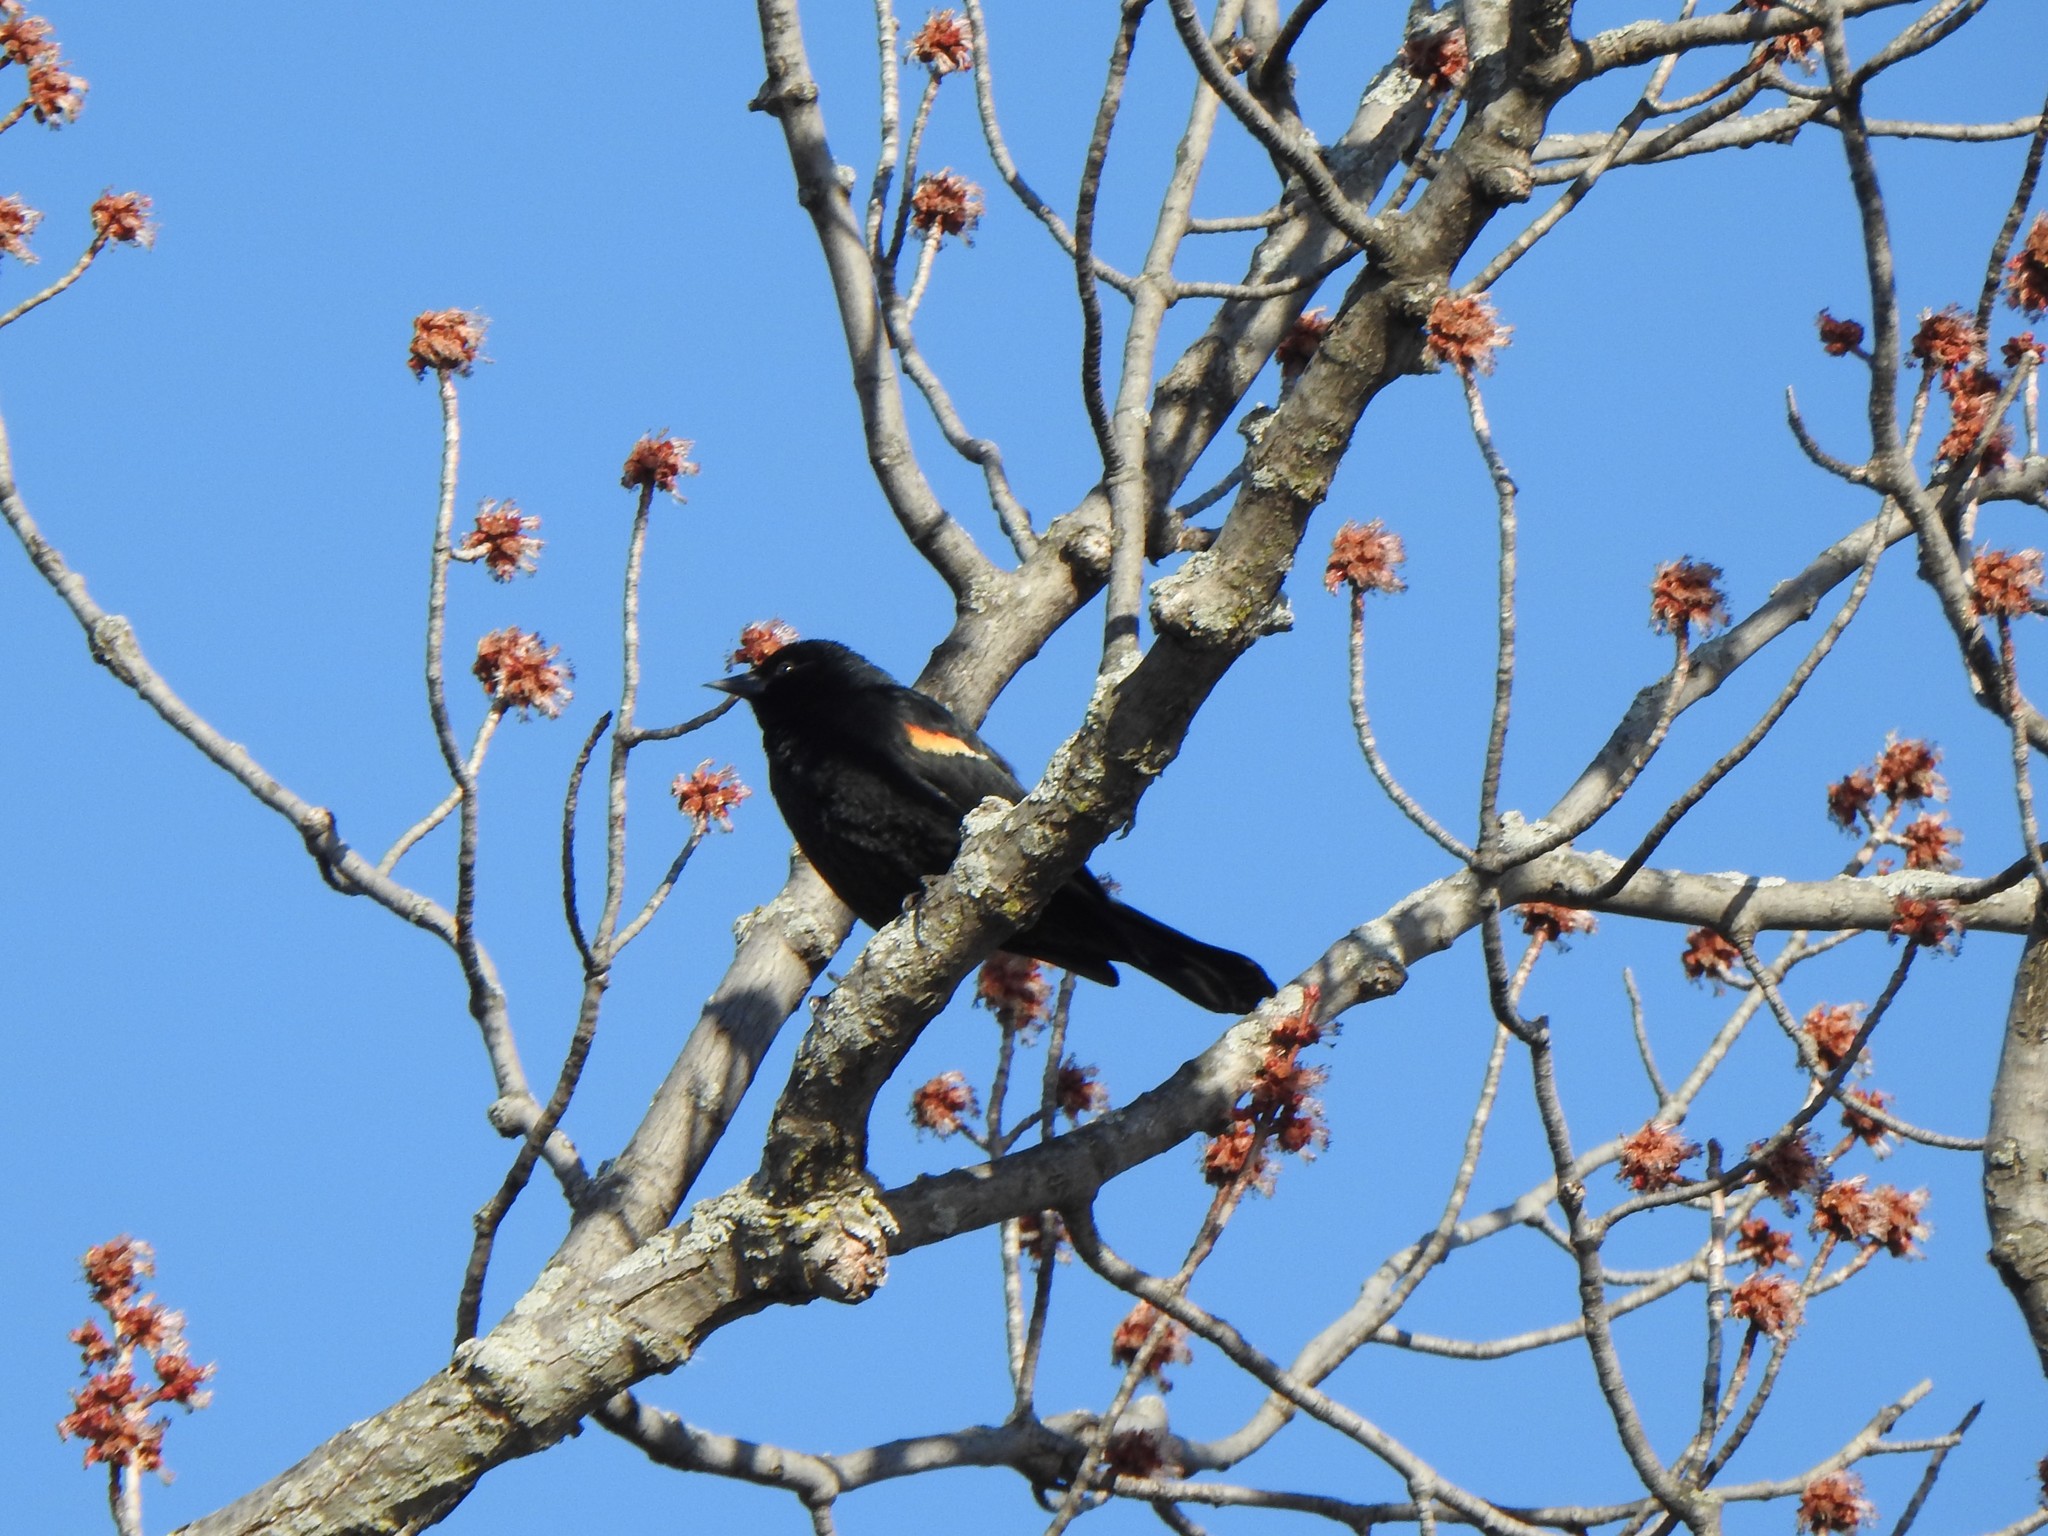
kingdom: Animalia
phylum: Chordata
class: Aves
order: Passeriformes
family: Icteridae
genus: Agelaius
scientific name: Agelaius phoeniceus
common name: Red-winged blackbird
